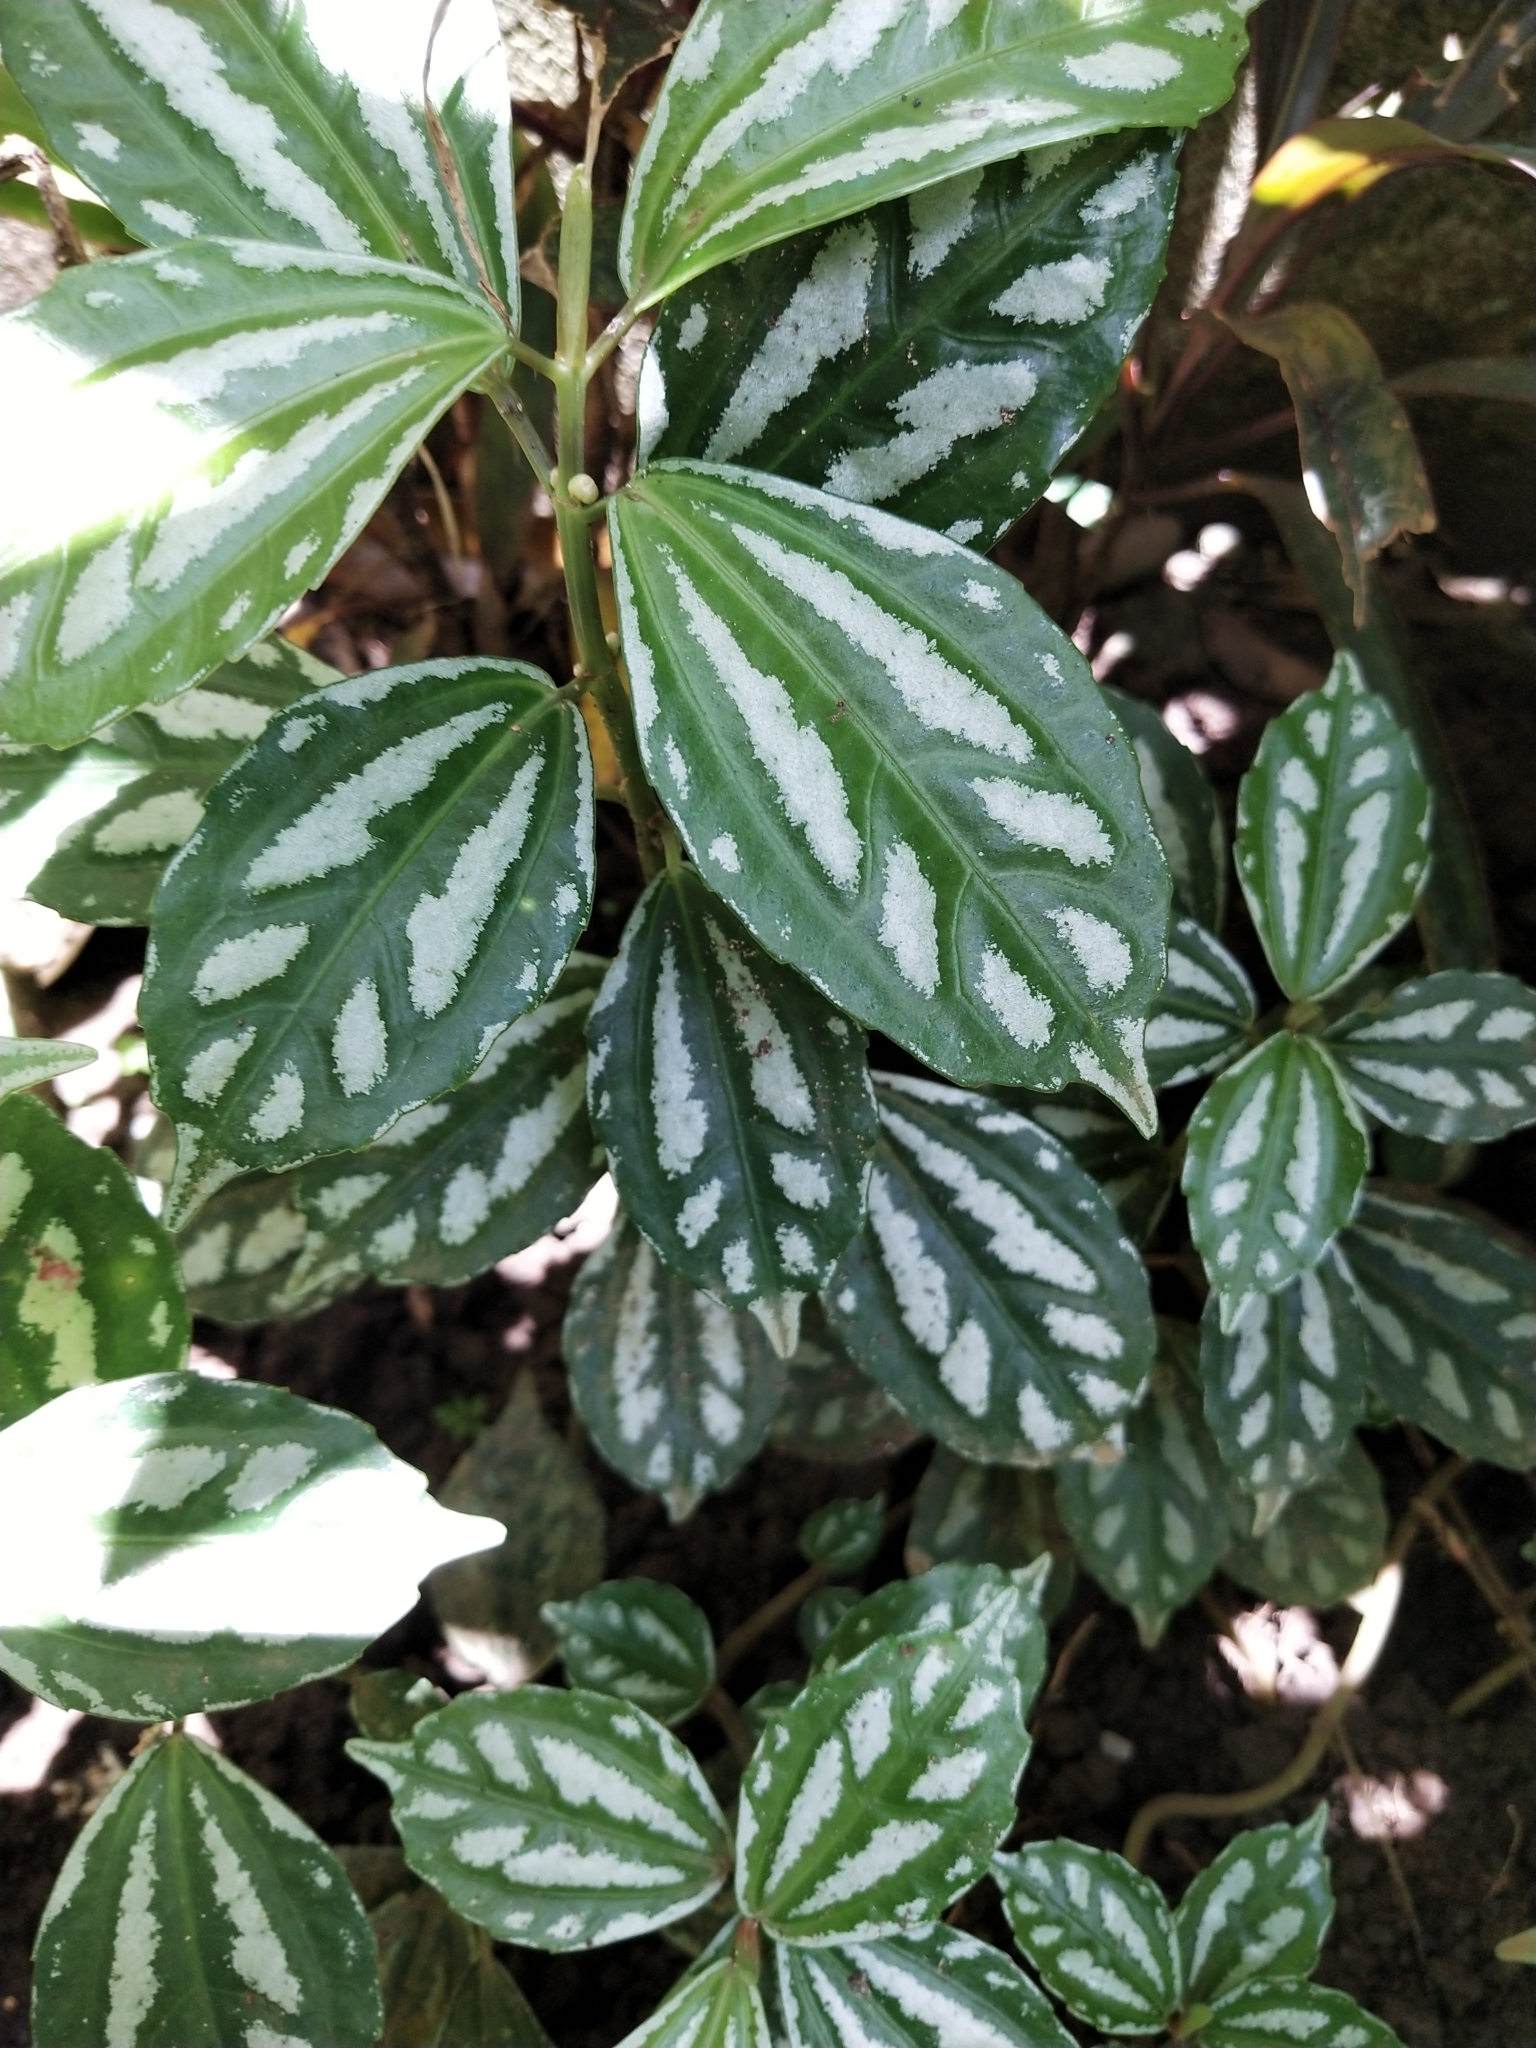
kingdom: Plantae
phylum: Tracheophyta
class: Magnoliopsida
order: Rosales
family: Urticaceae
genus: Pilea
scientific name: Pilea cadierei
